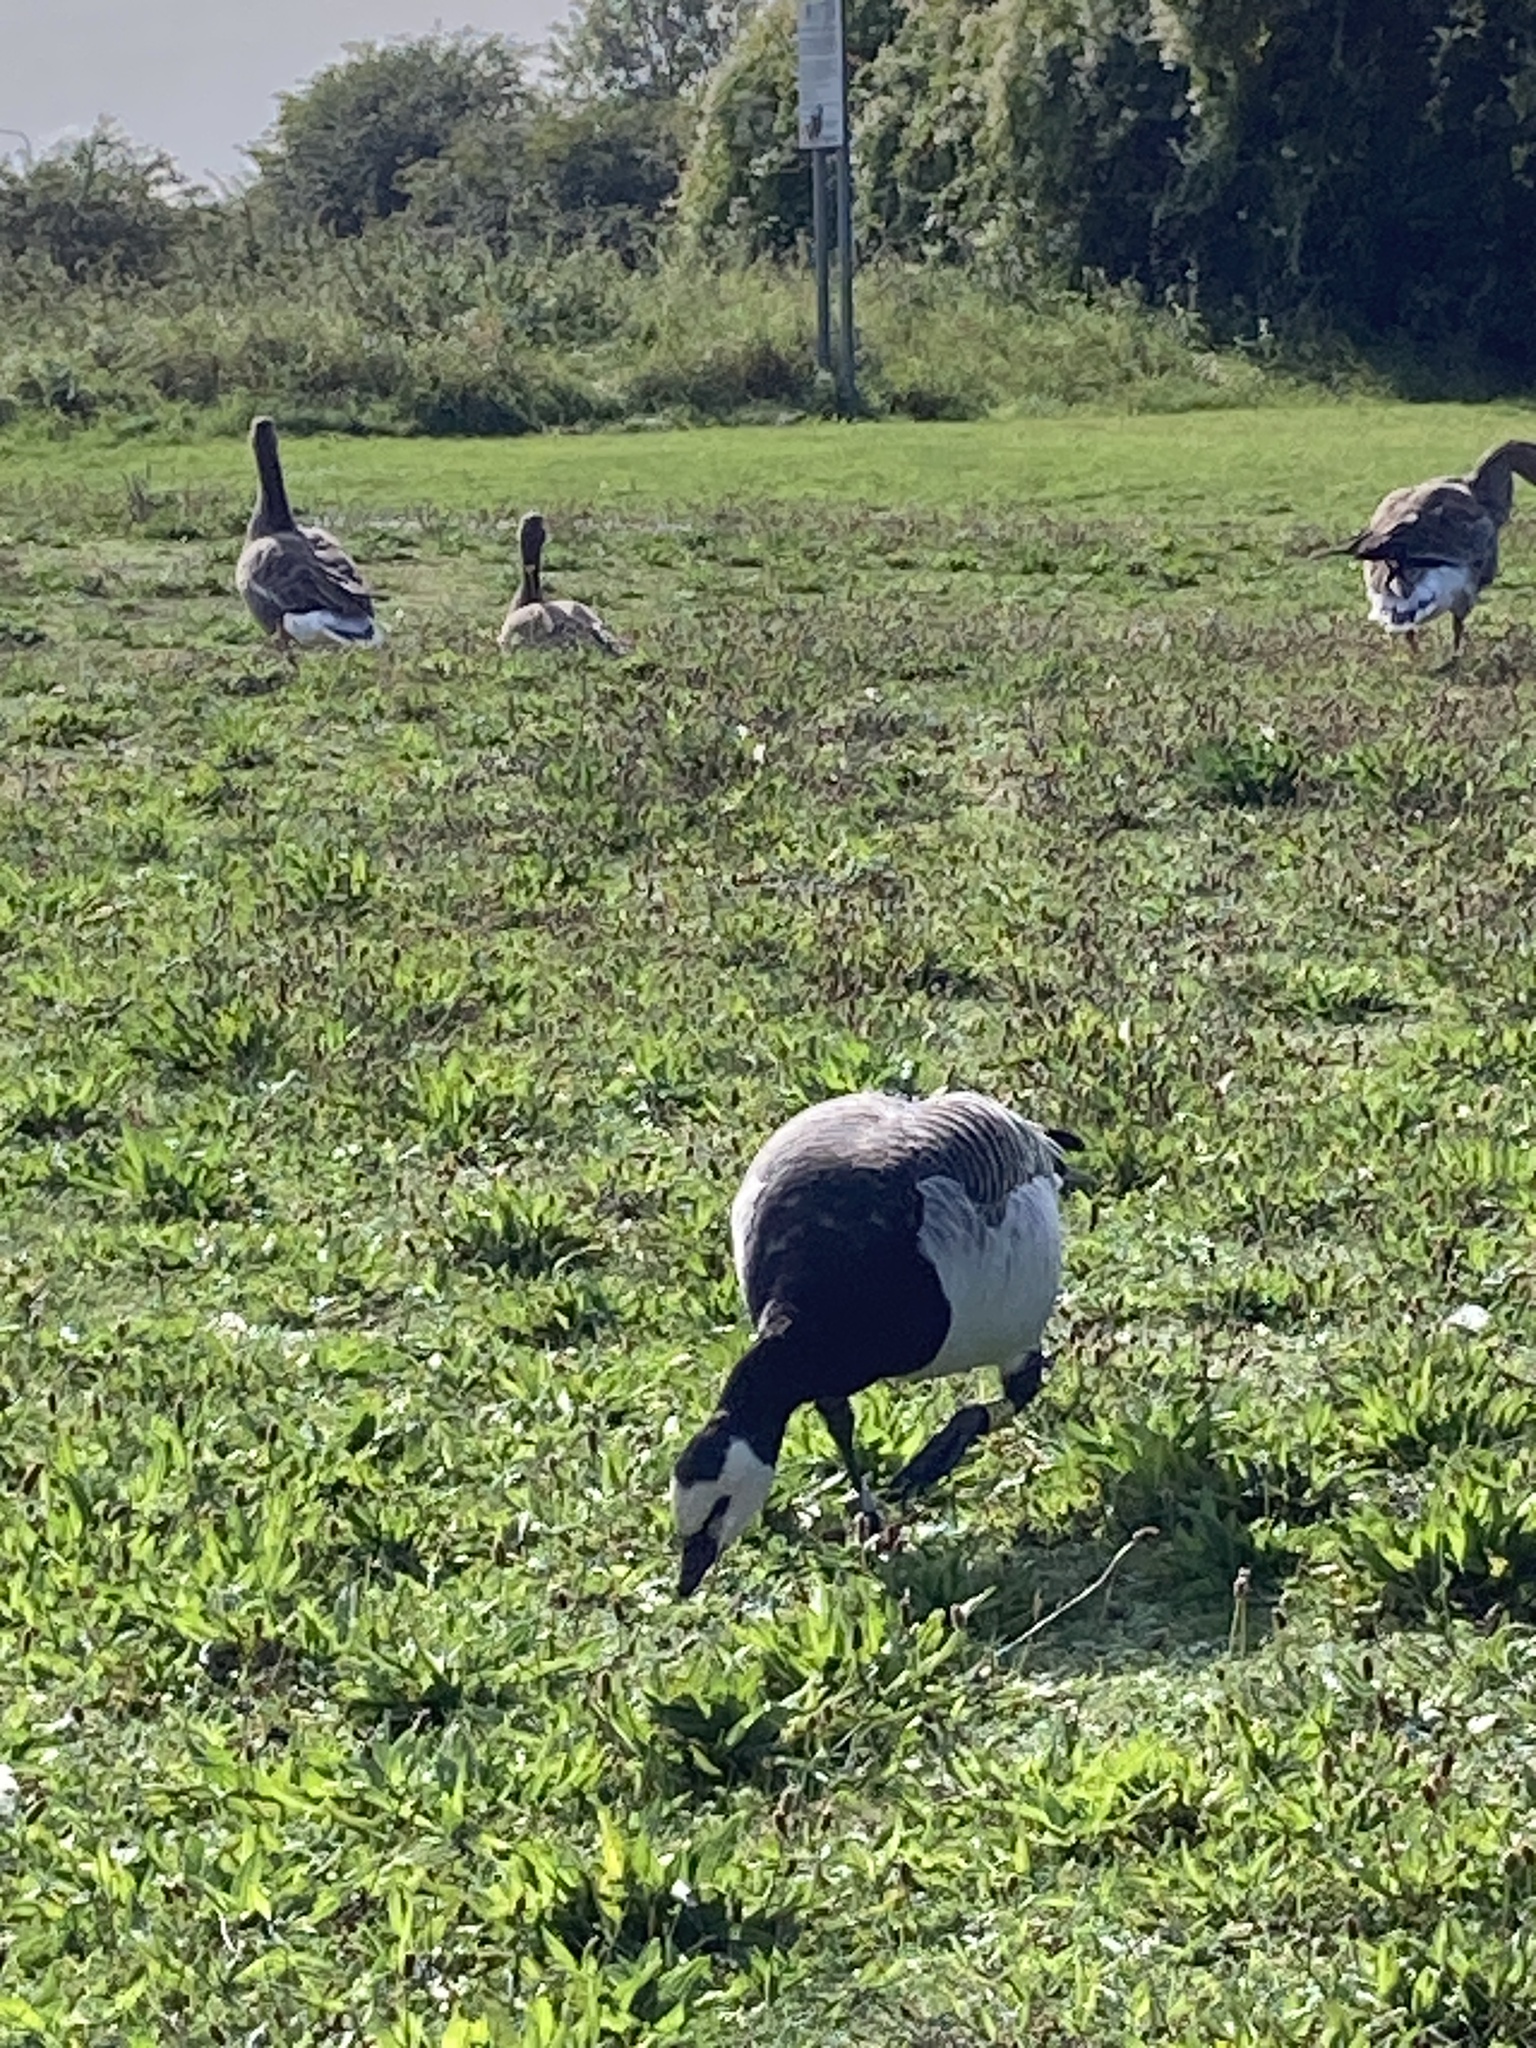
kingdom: Animalia
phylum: Chordata
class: Aves
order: Anseriformes
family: Anatidae
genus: Branta
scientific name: Branta leucopsis
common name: Barnacle goose
